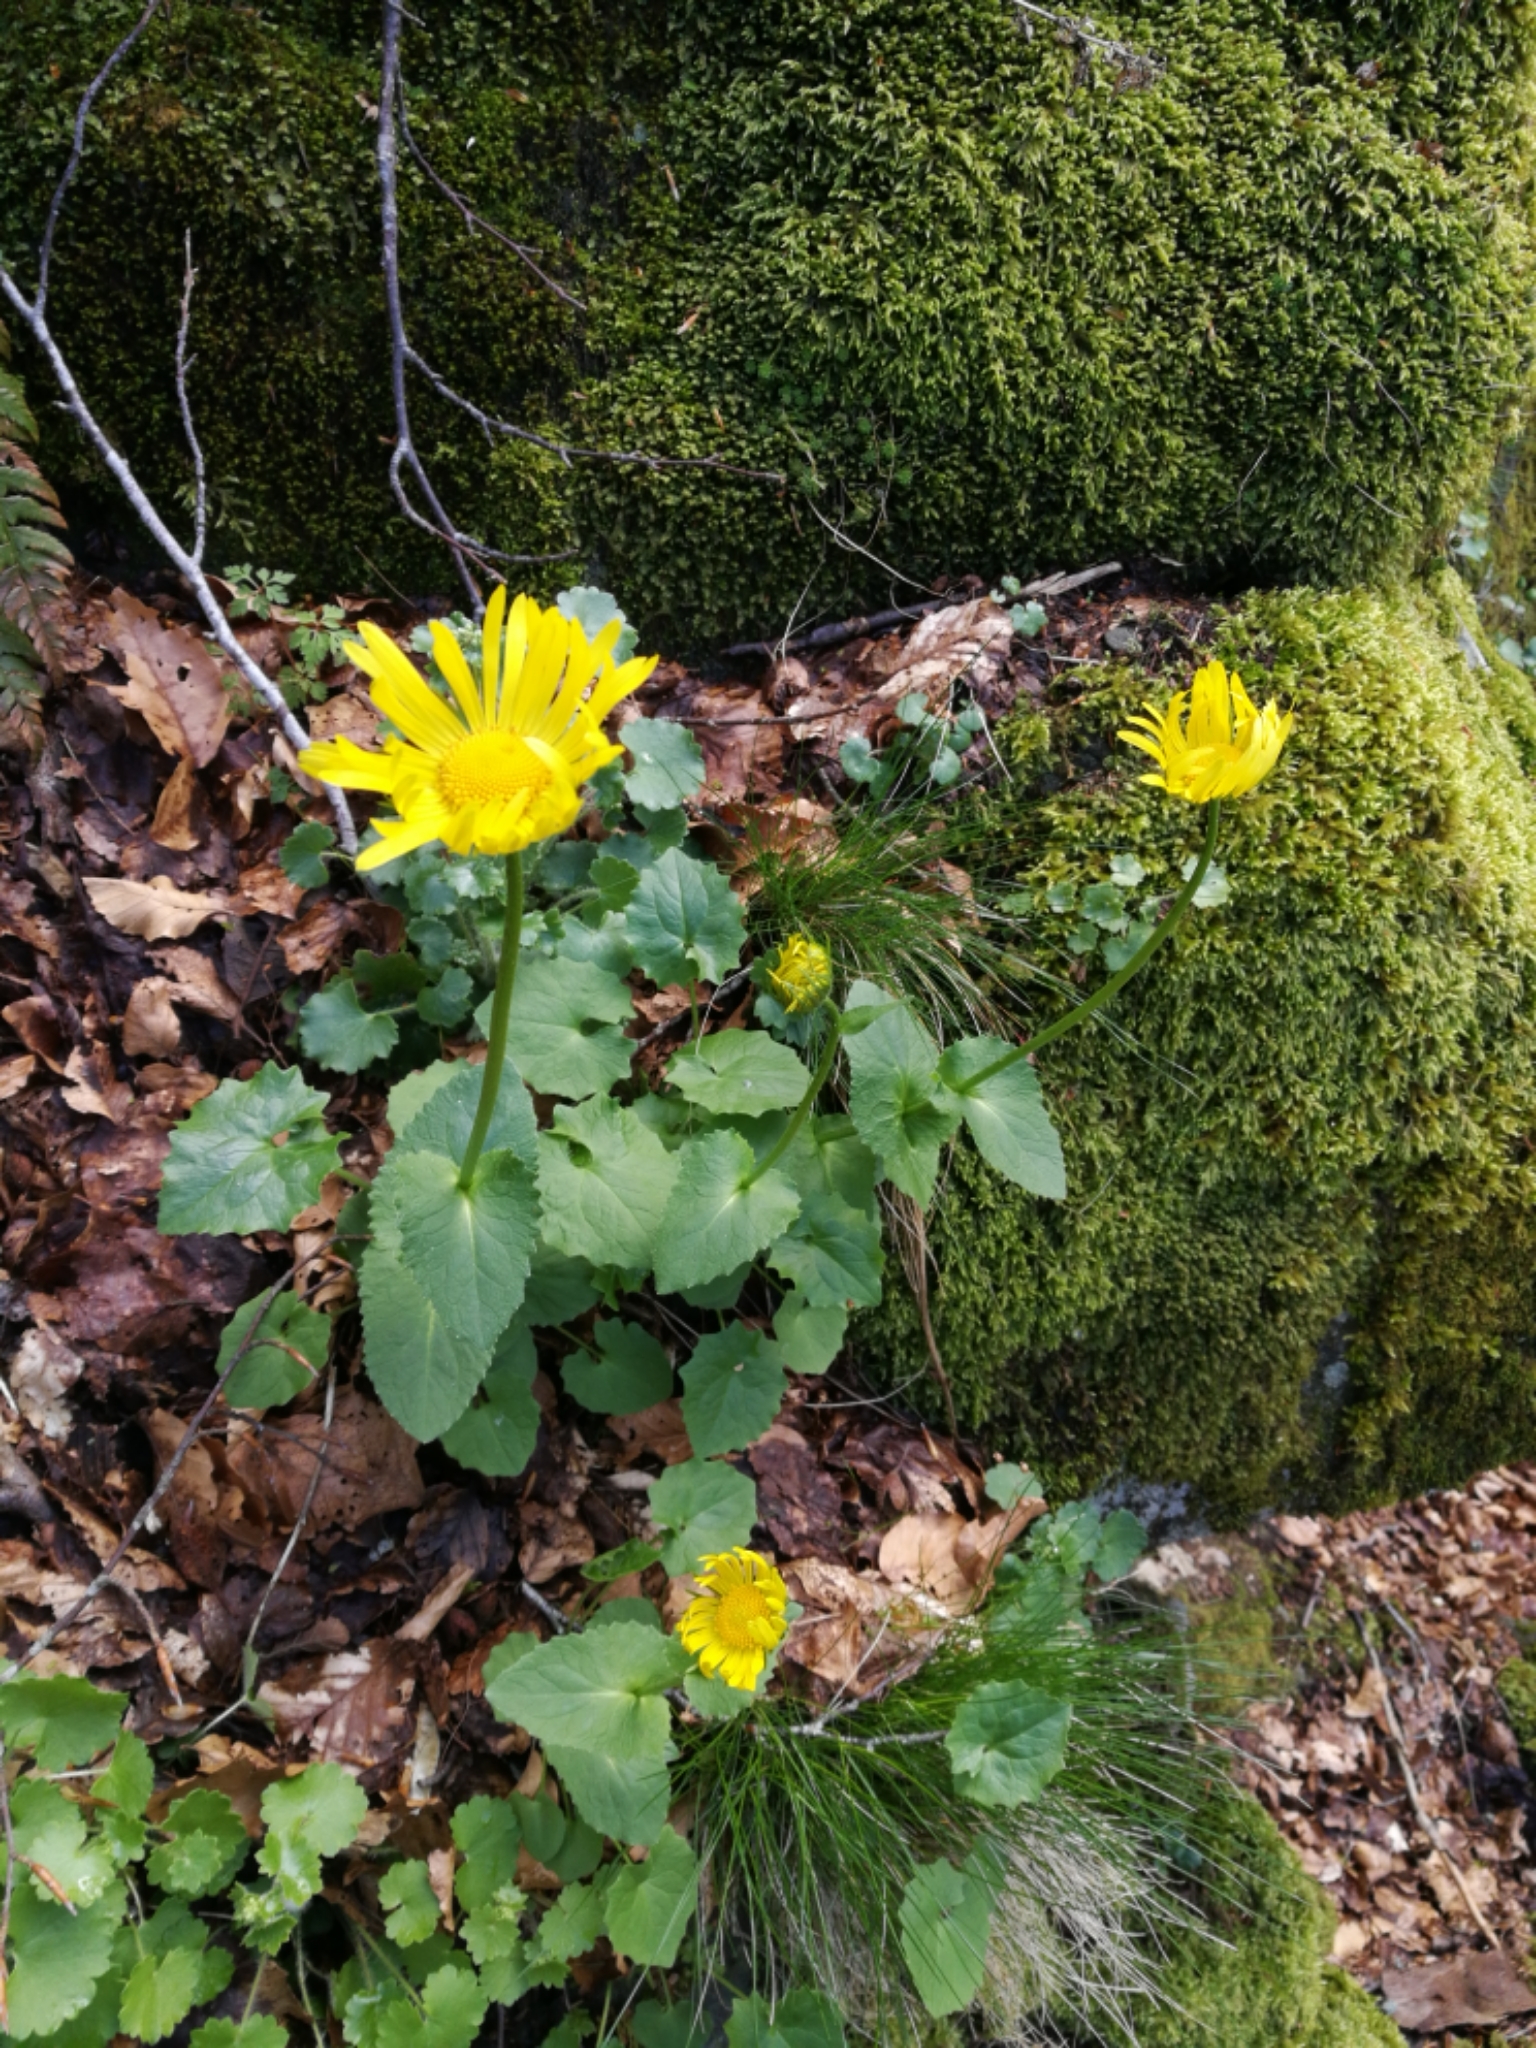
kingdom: Plantae
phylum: Tracheophyta
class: Magnoliopsida
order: Asterales
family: Asteraceae
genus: Doronicum
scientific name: Doronicum columnae
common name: Eastern leopard's-bane
